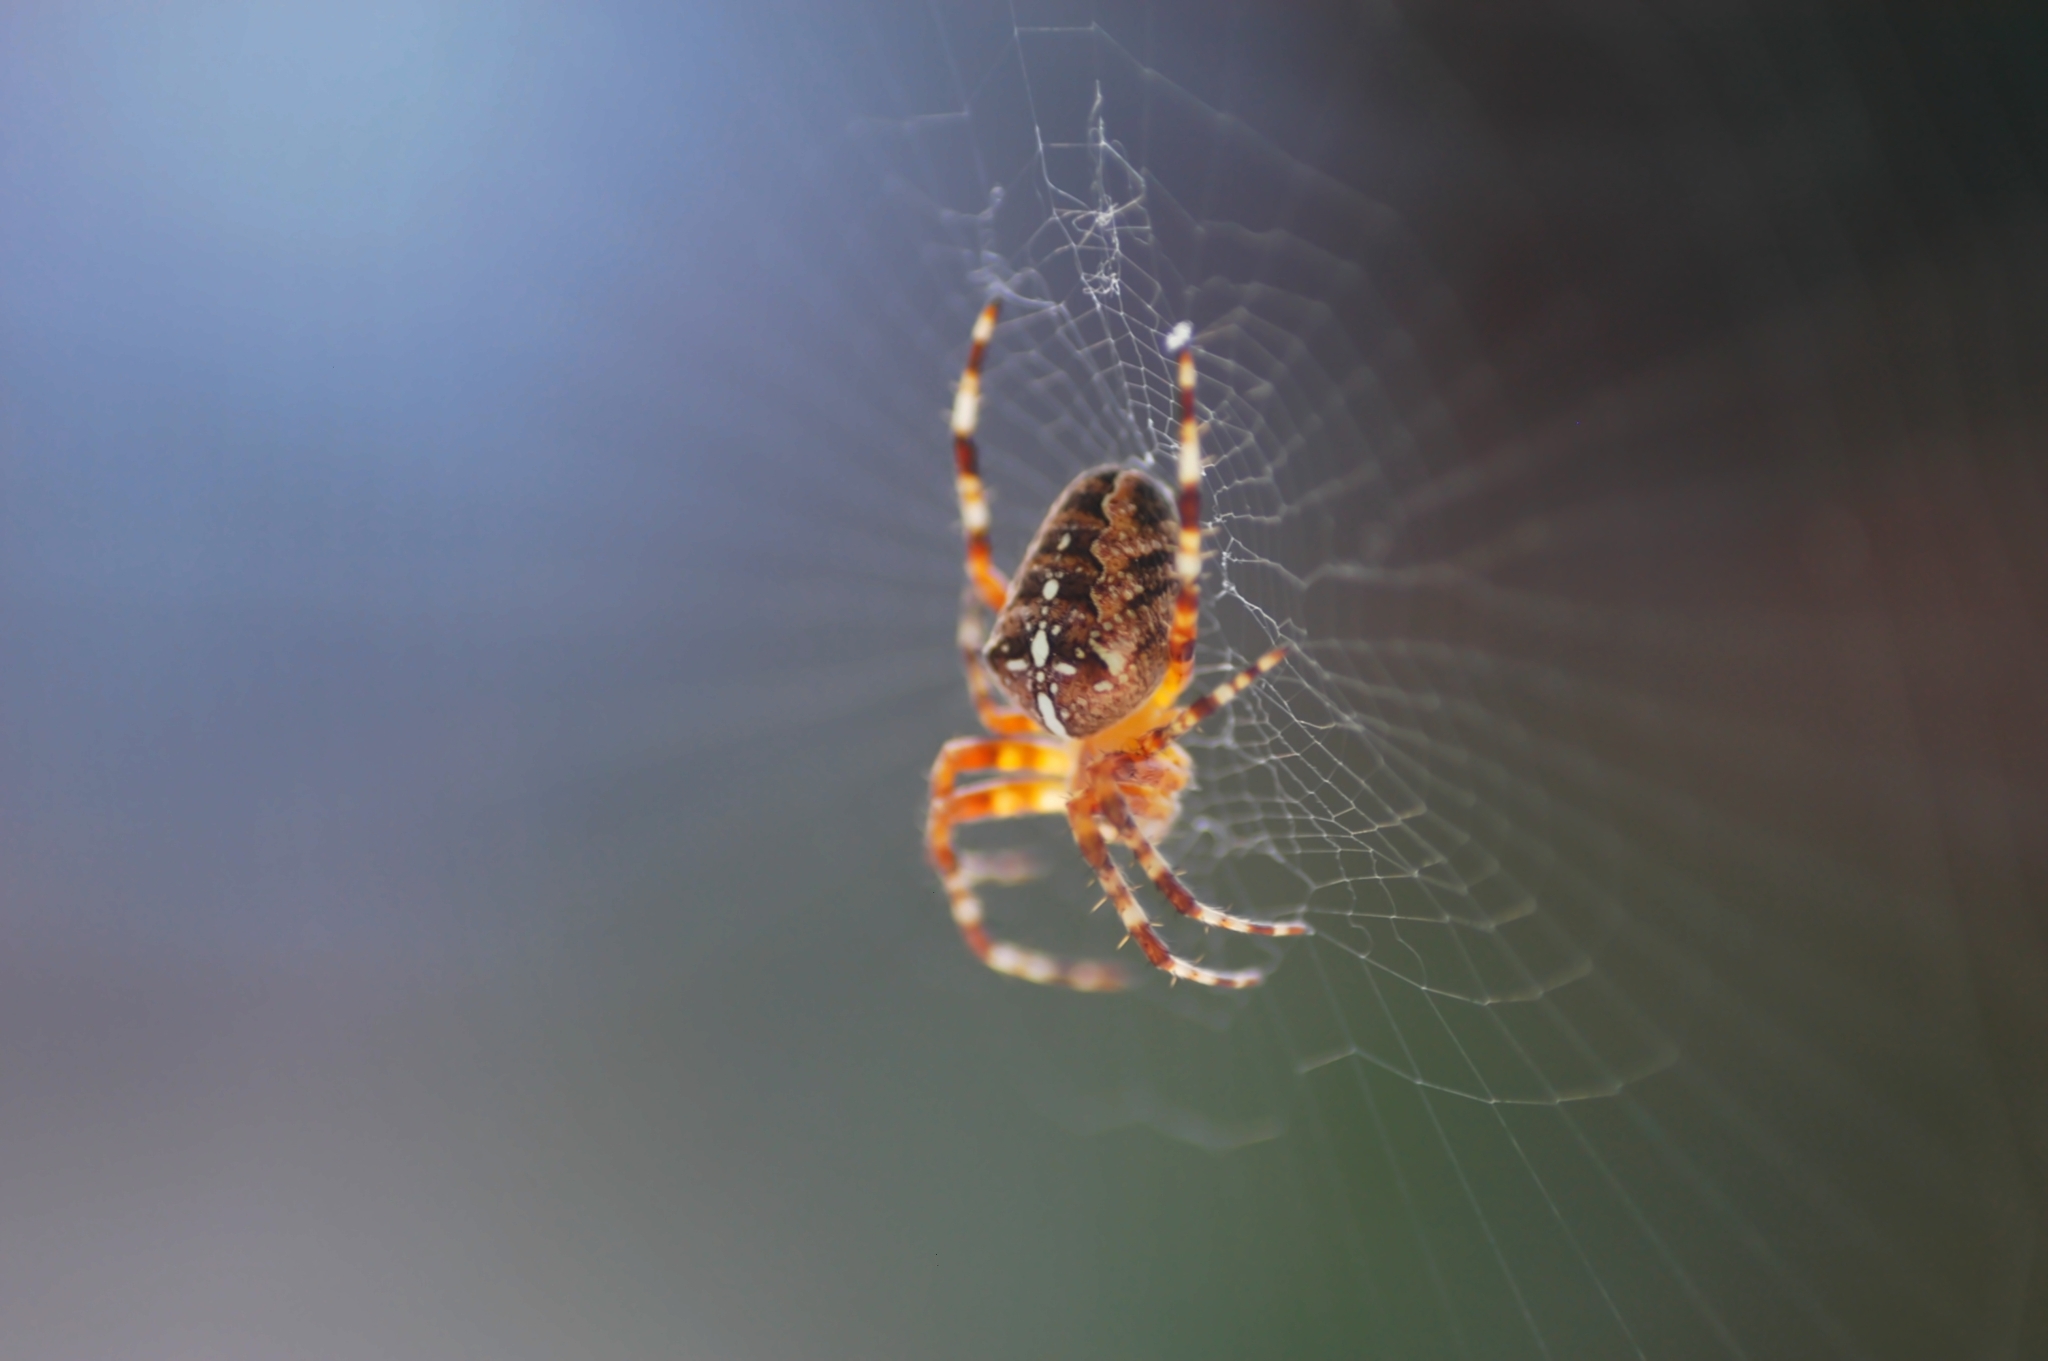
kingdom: Animalia
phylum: Arthropoda
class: Arachnida
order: Araneae
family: Araneidae
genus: Araneus
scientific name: Araneus diadematus
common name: Cross orbweaver
